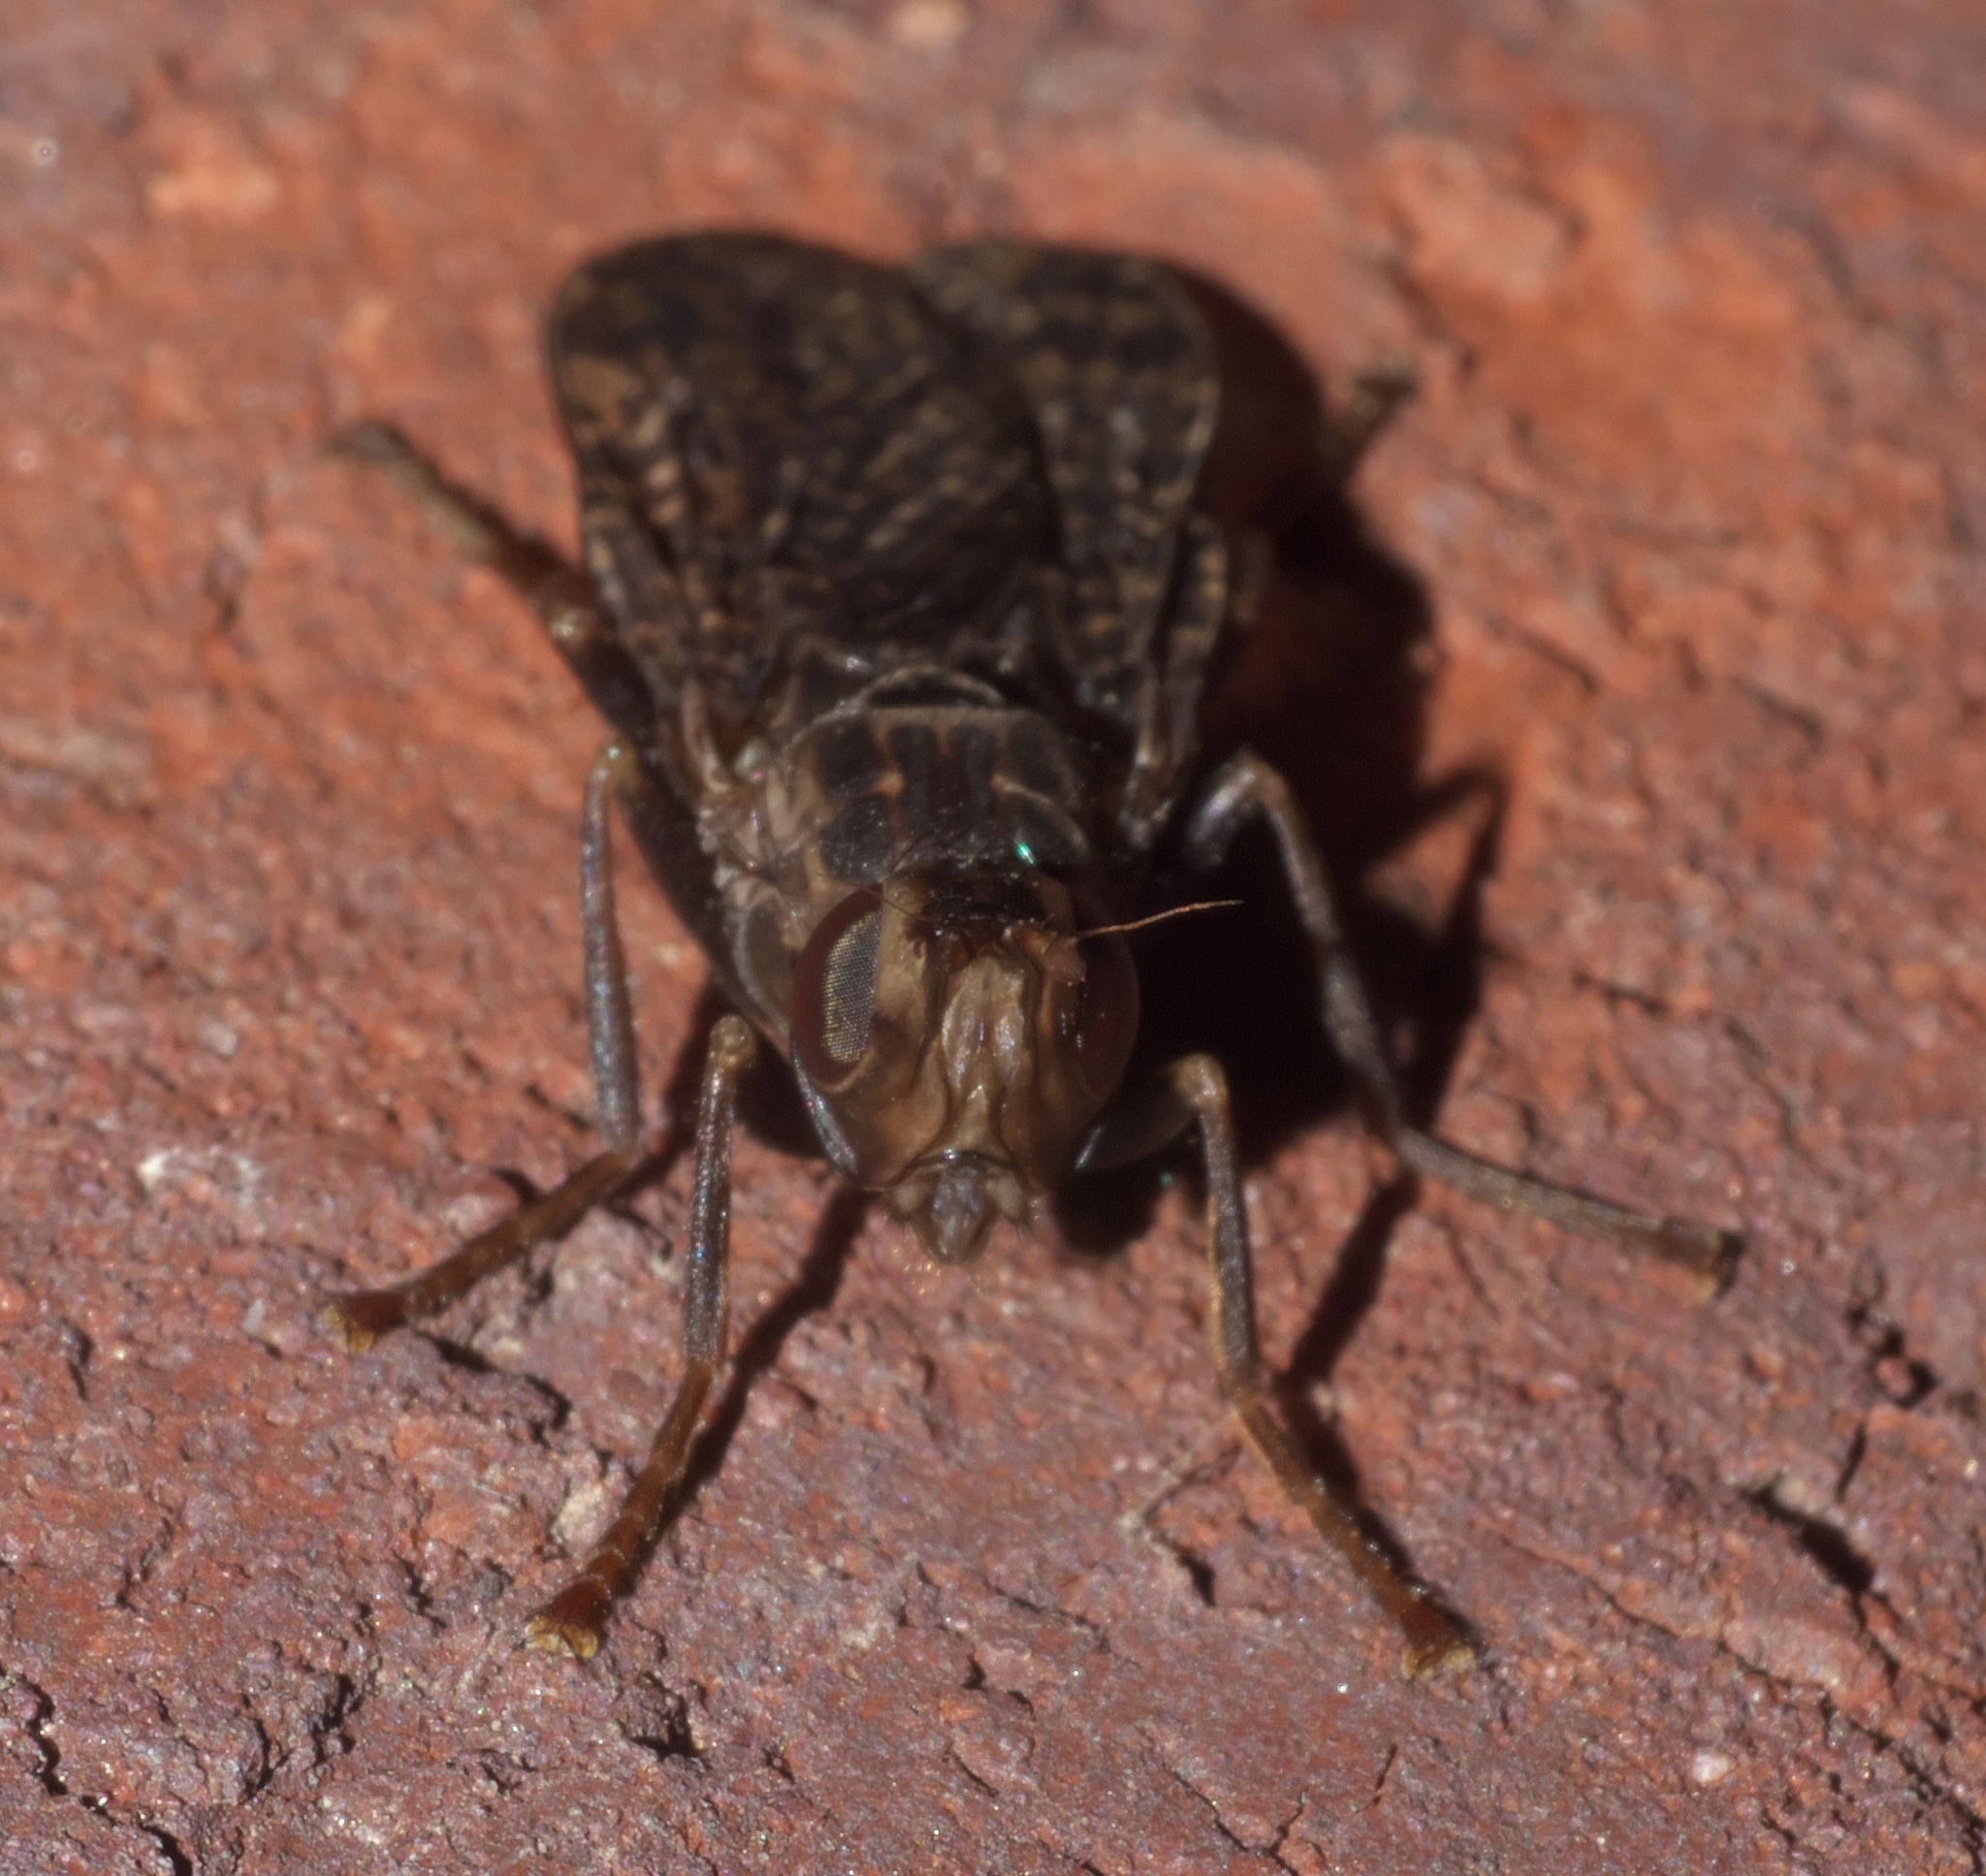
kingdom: Animalia
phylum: Arthropoda
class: Insecta
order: Diptera
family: Pyrgotidae
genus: Pyrgota
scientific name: Pyrgota valida
